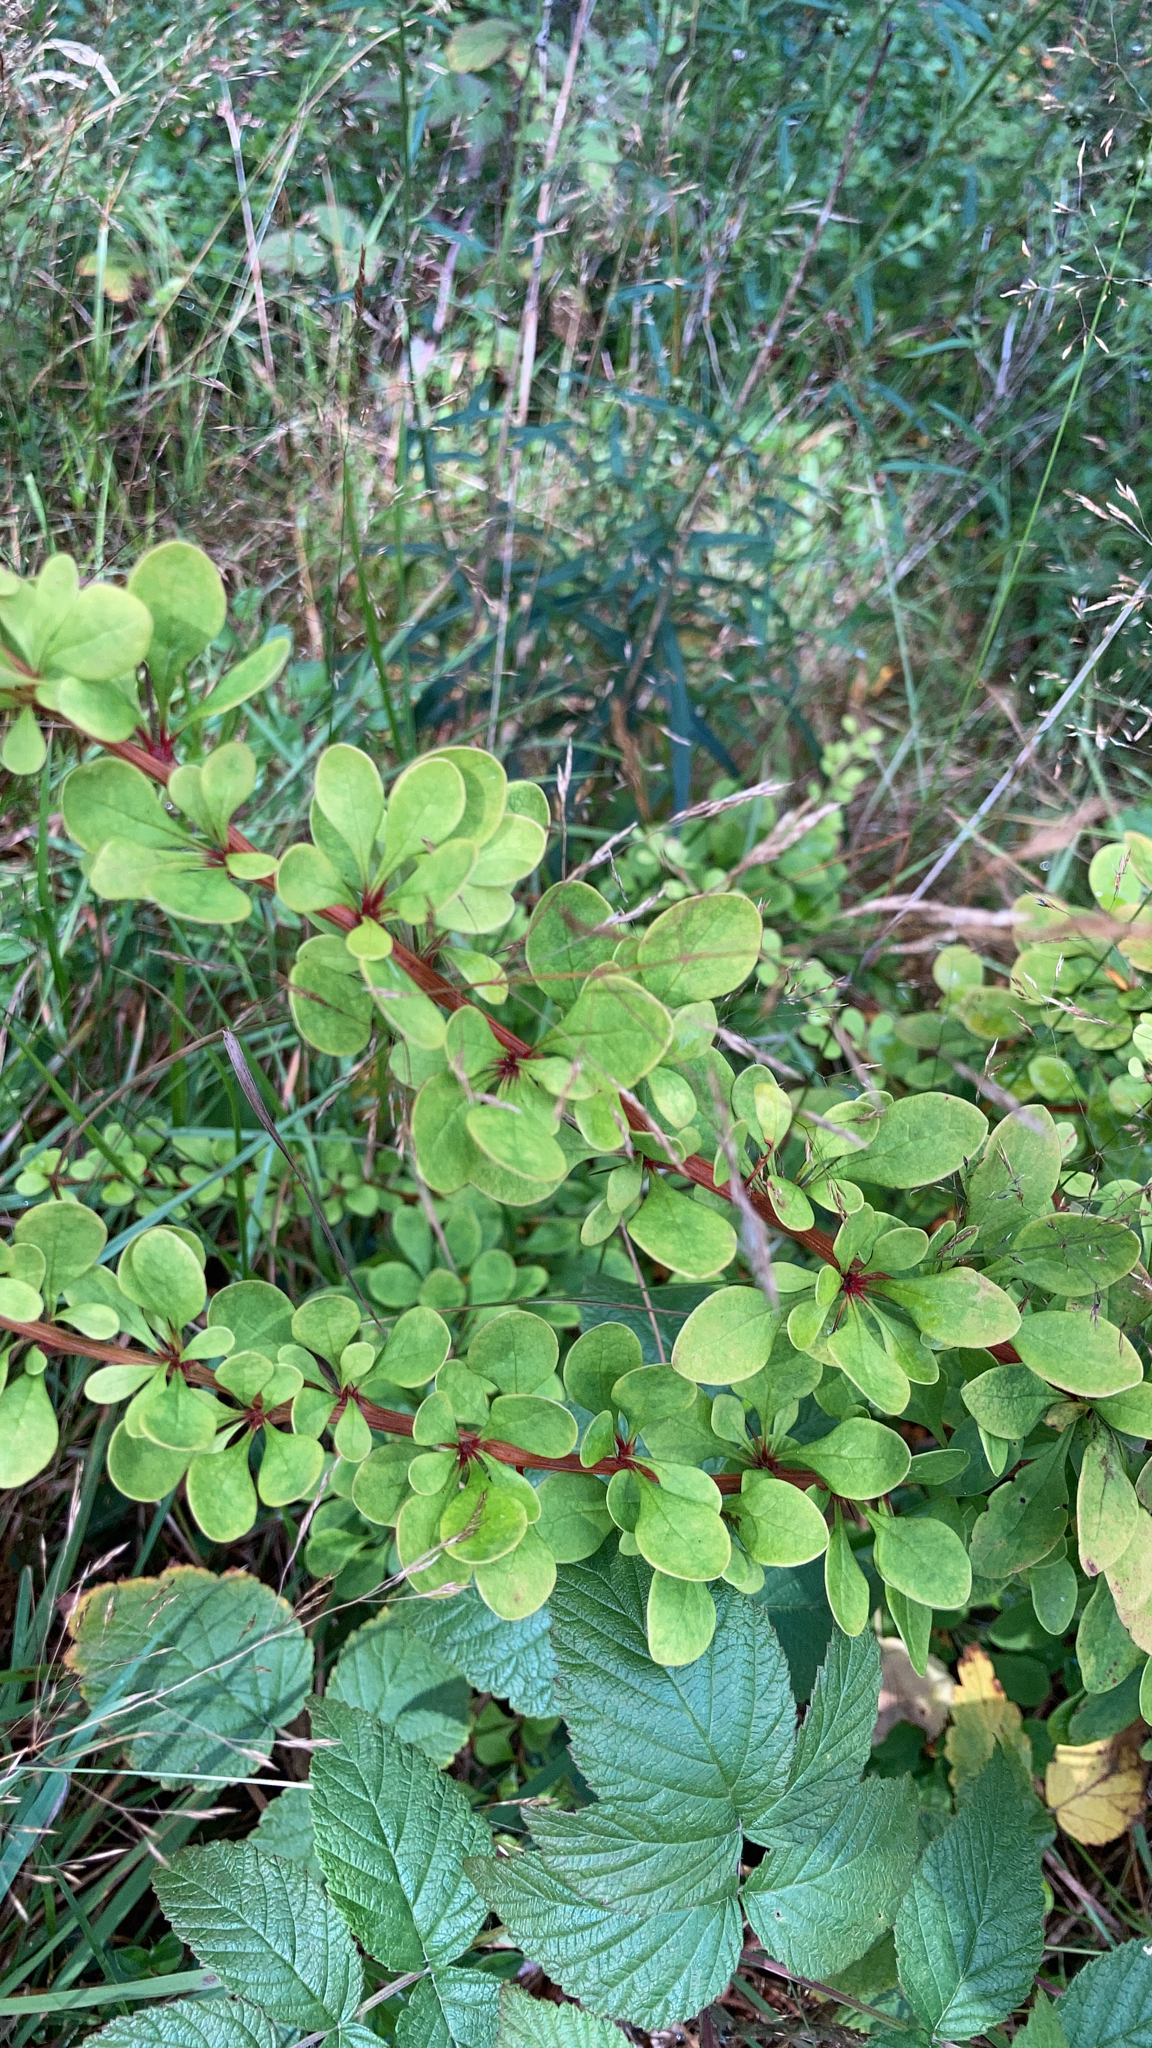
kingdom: Plantae
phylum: Tracheophyta
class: Magnoliopsida
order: Ranunculales
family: Berberidaceae
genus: Berberis
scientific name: Berberis thunbergii
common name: Japanese barberry
